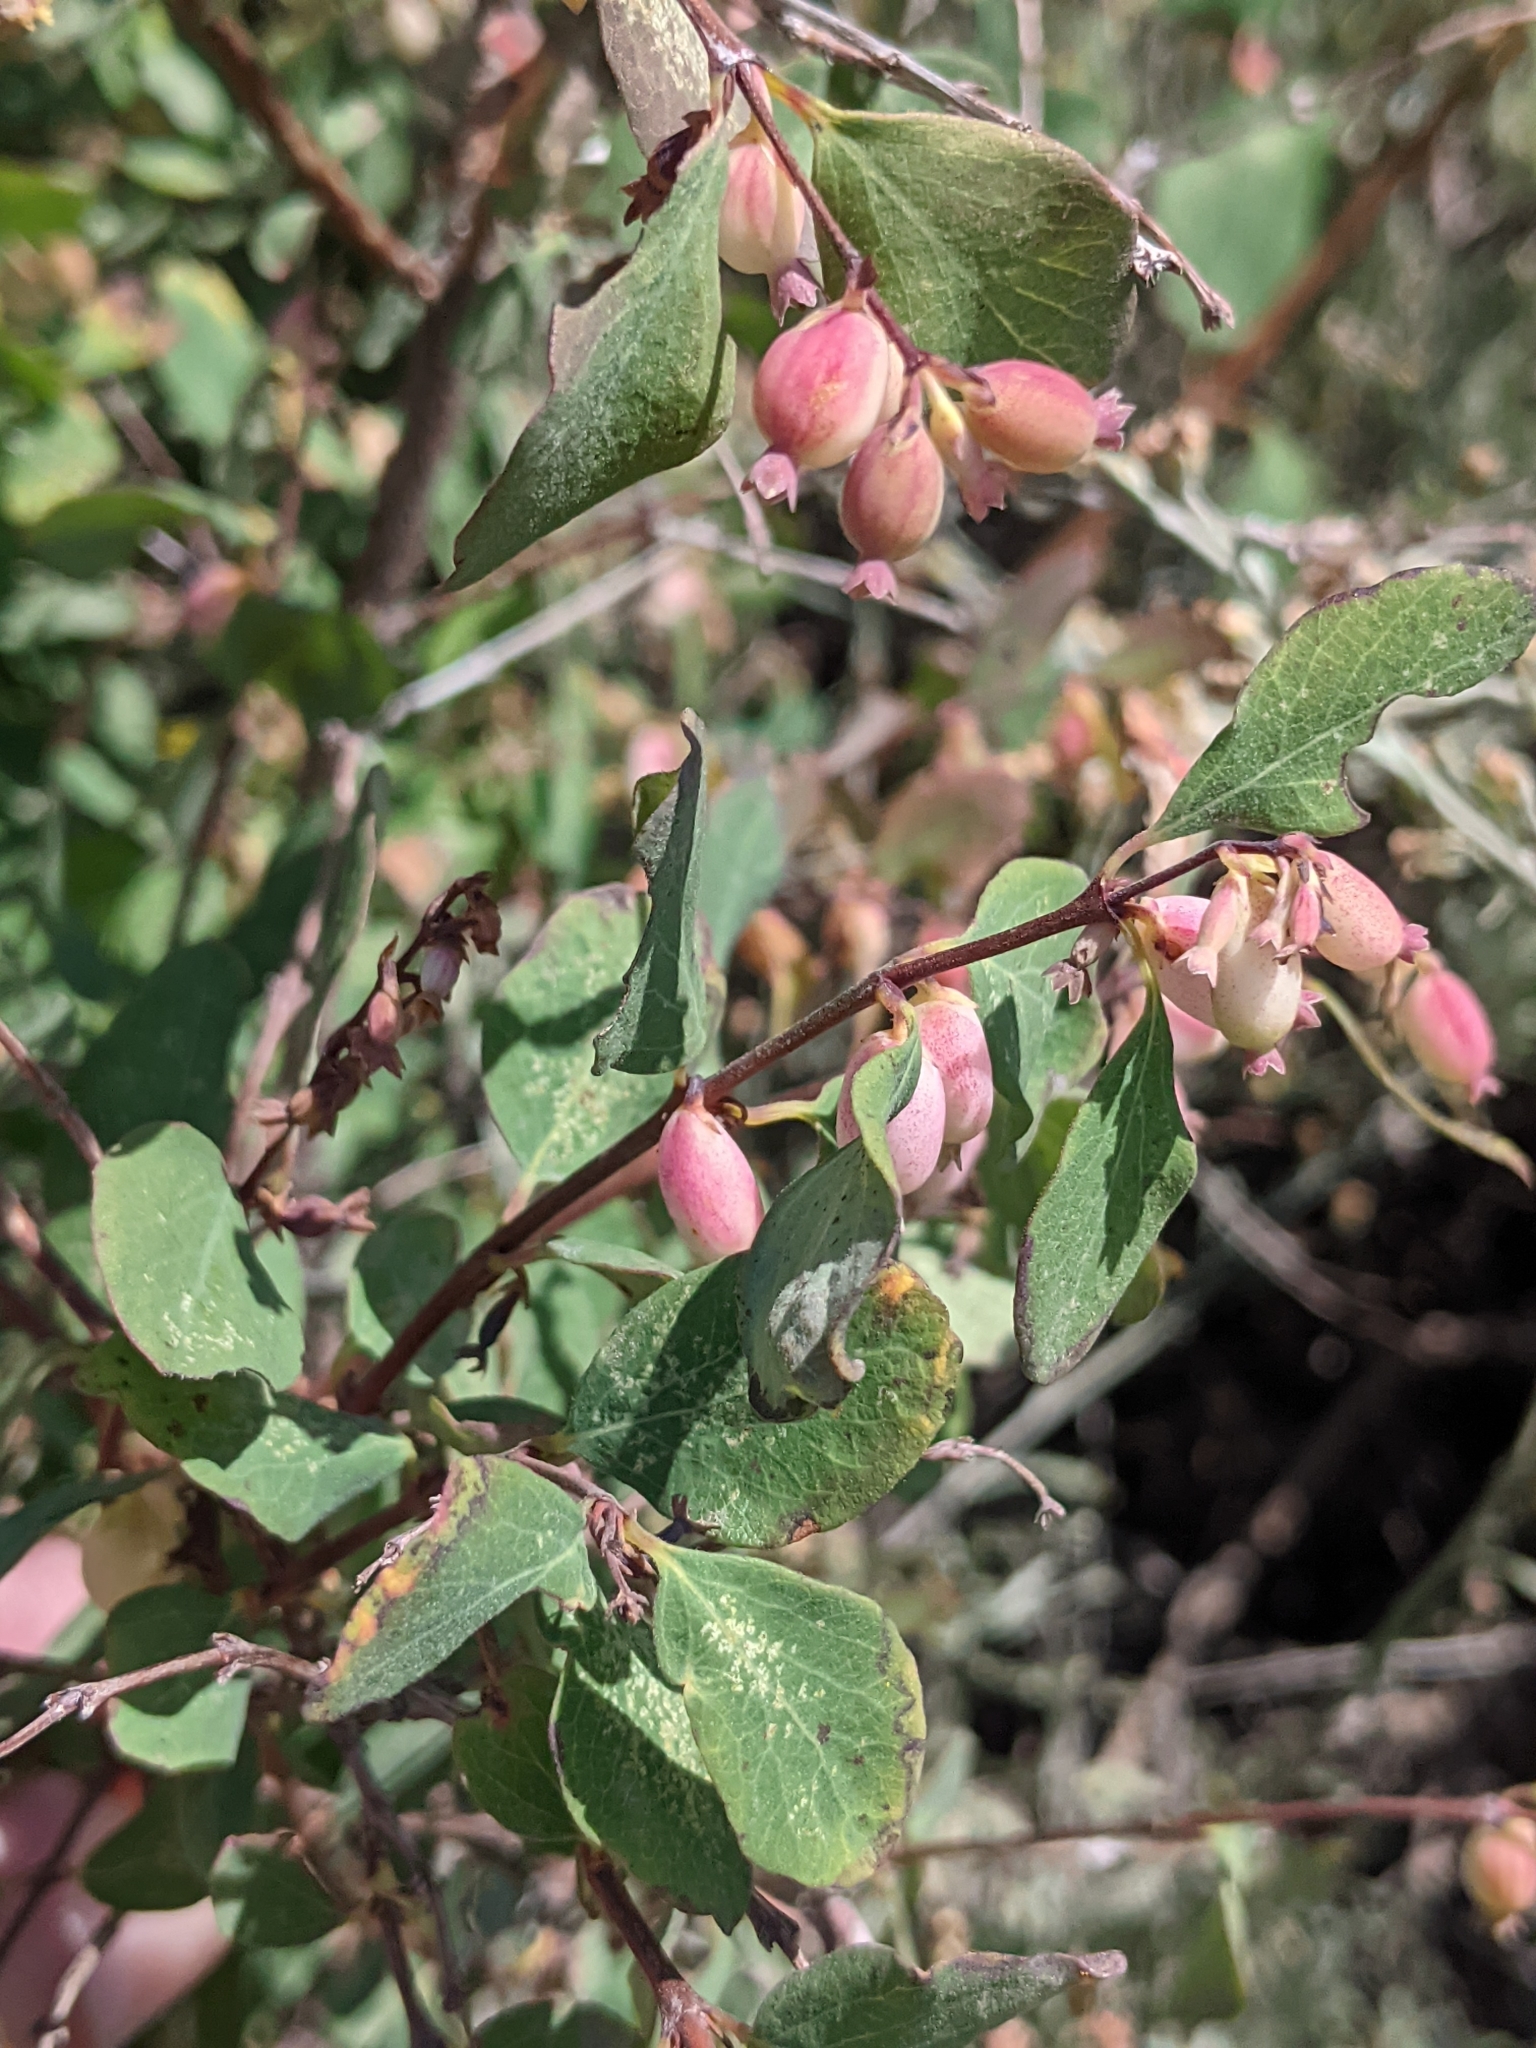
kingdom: Plantae
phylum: Tracheophyta
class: Magnoliopsida
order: Dipsacales
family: Caprifoliaceae
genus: Symphoricarpos
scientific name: Symphoricarpos rotundifolius
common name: Round-leaved snowberry
